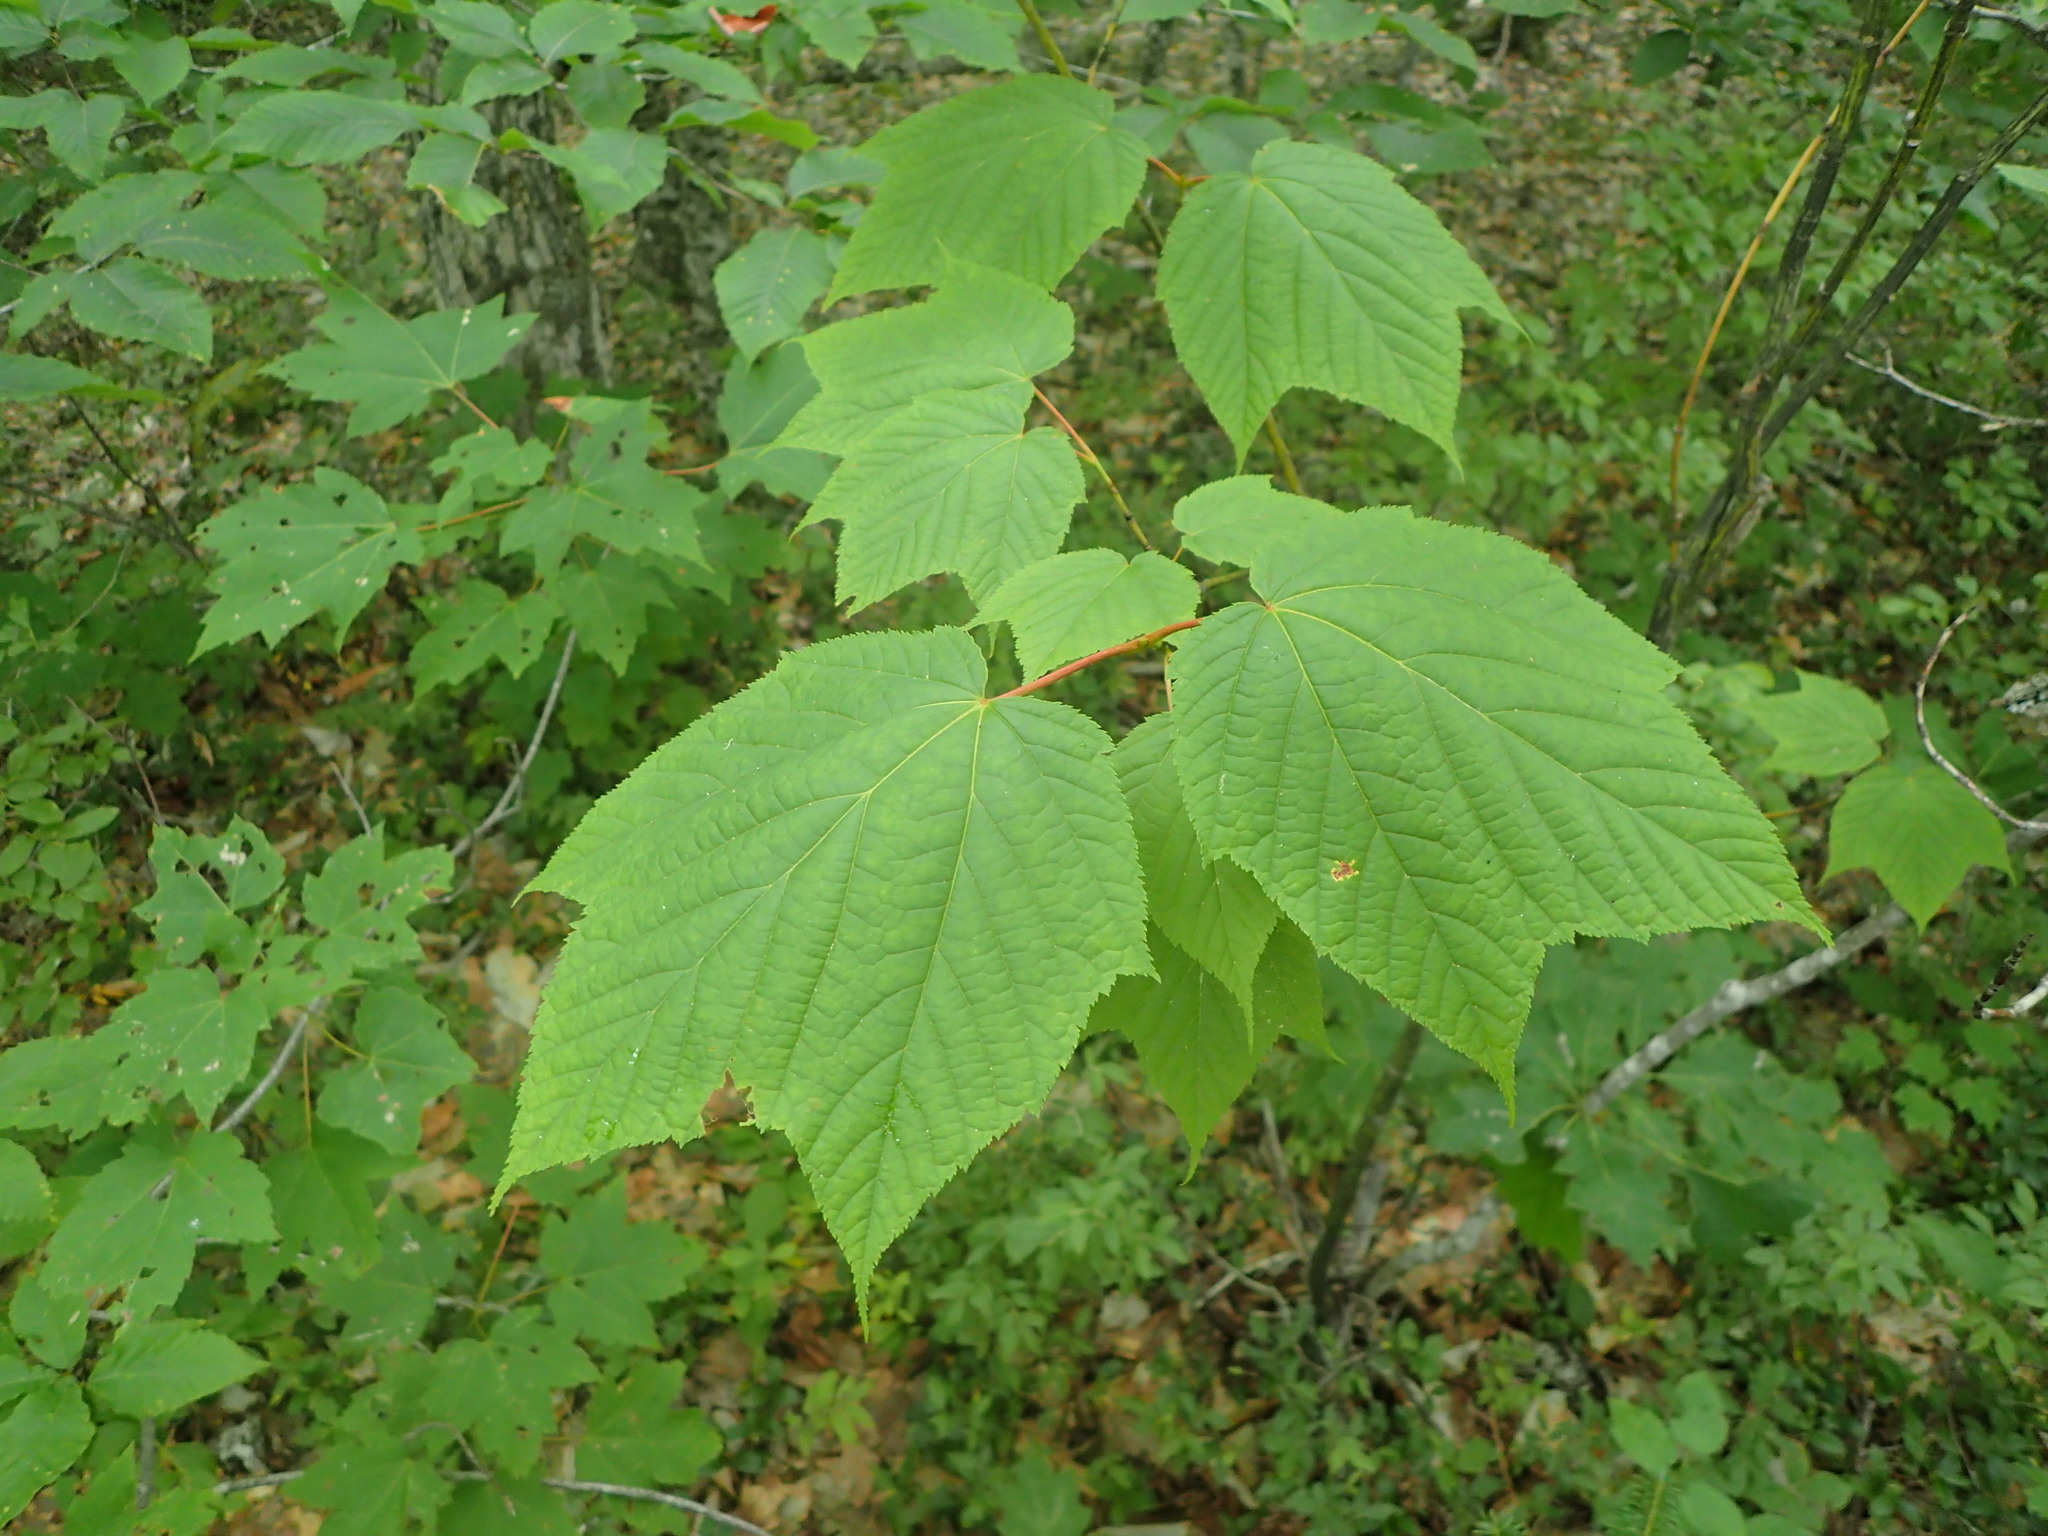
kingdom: Plantae
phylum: Tracheophyta
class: Magnoliopsida
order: Sapindales
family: Sapindaceae
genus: Acer
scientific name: Acer pensylvanicum
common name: Moosewood
